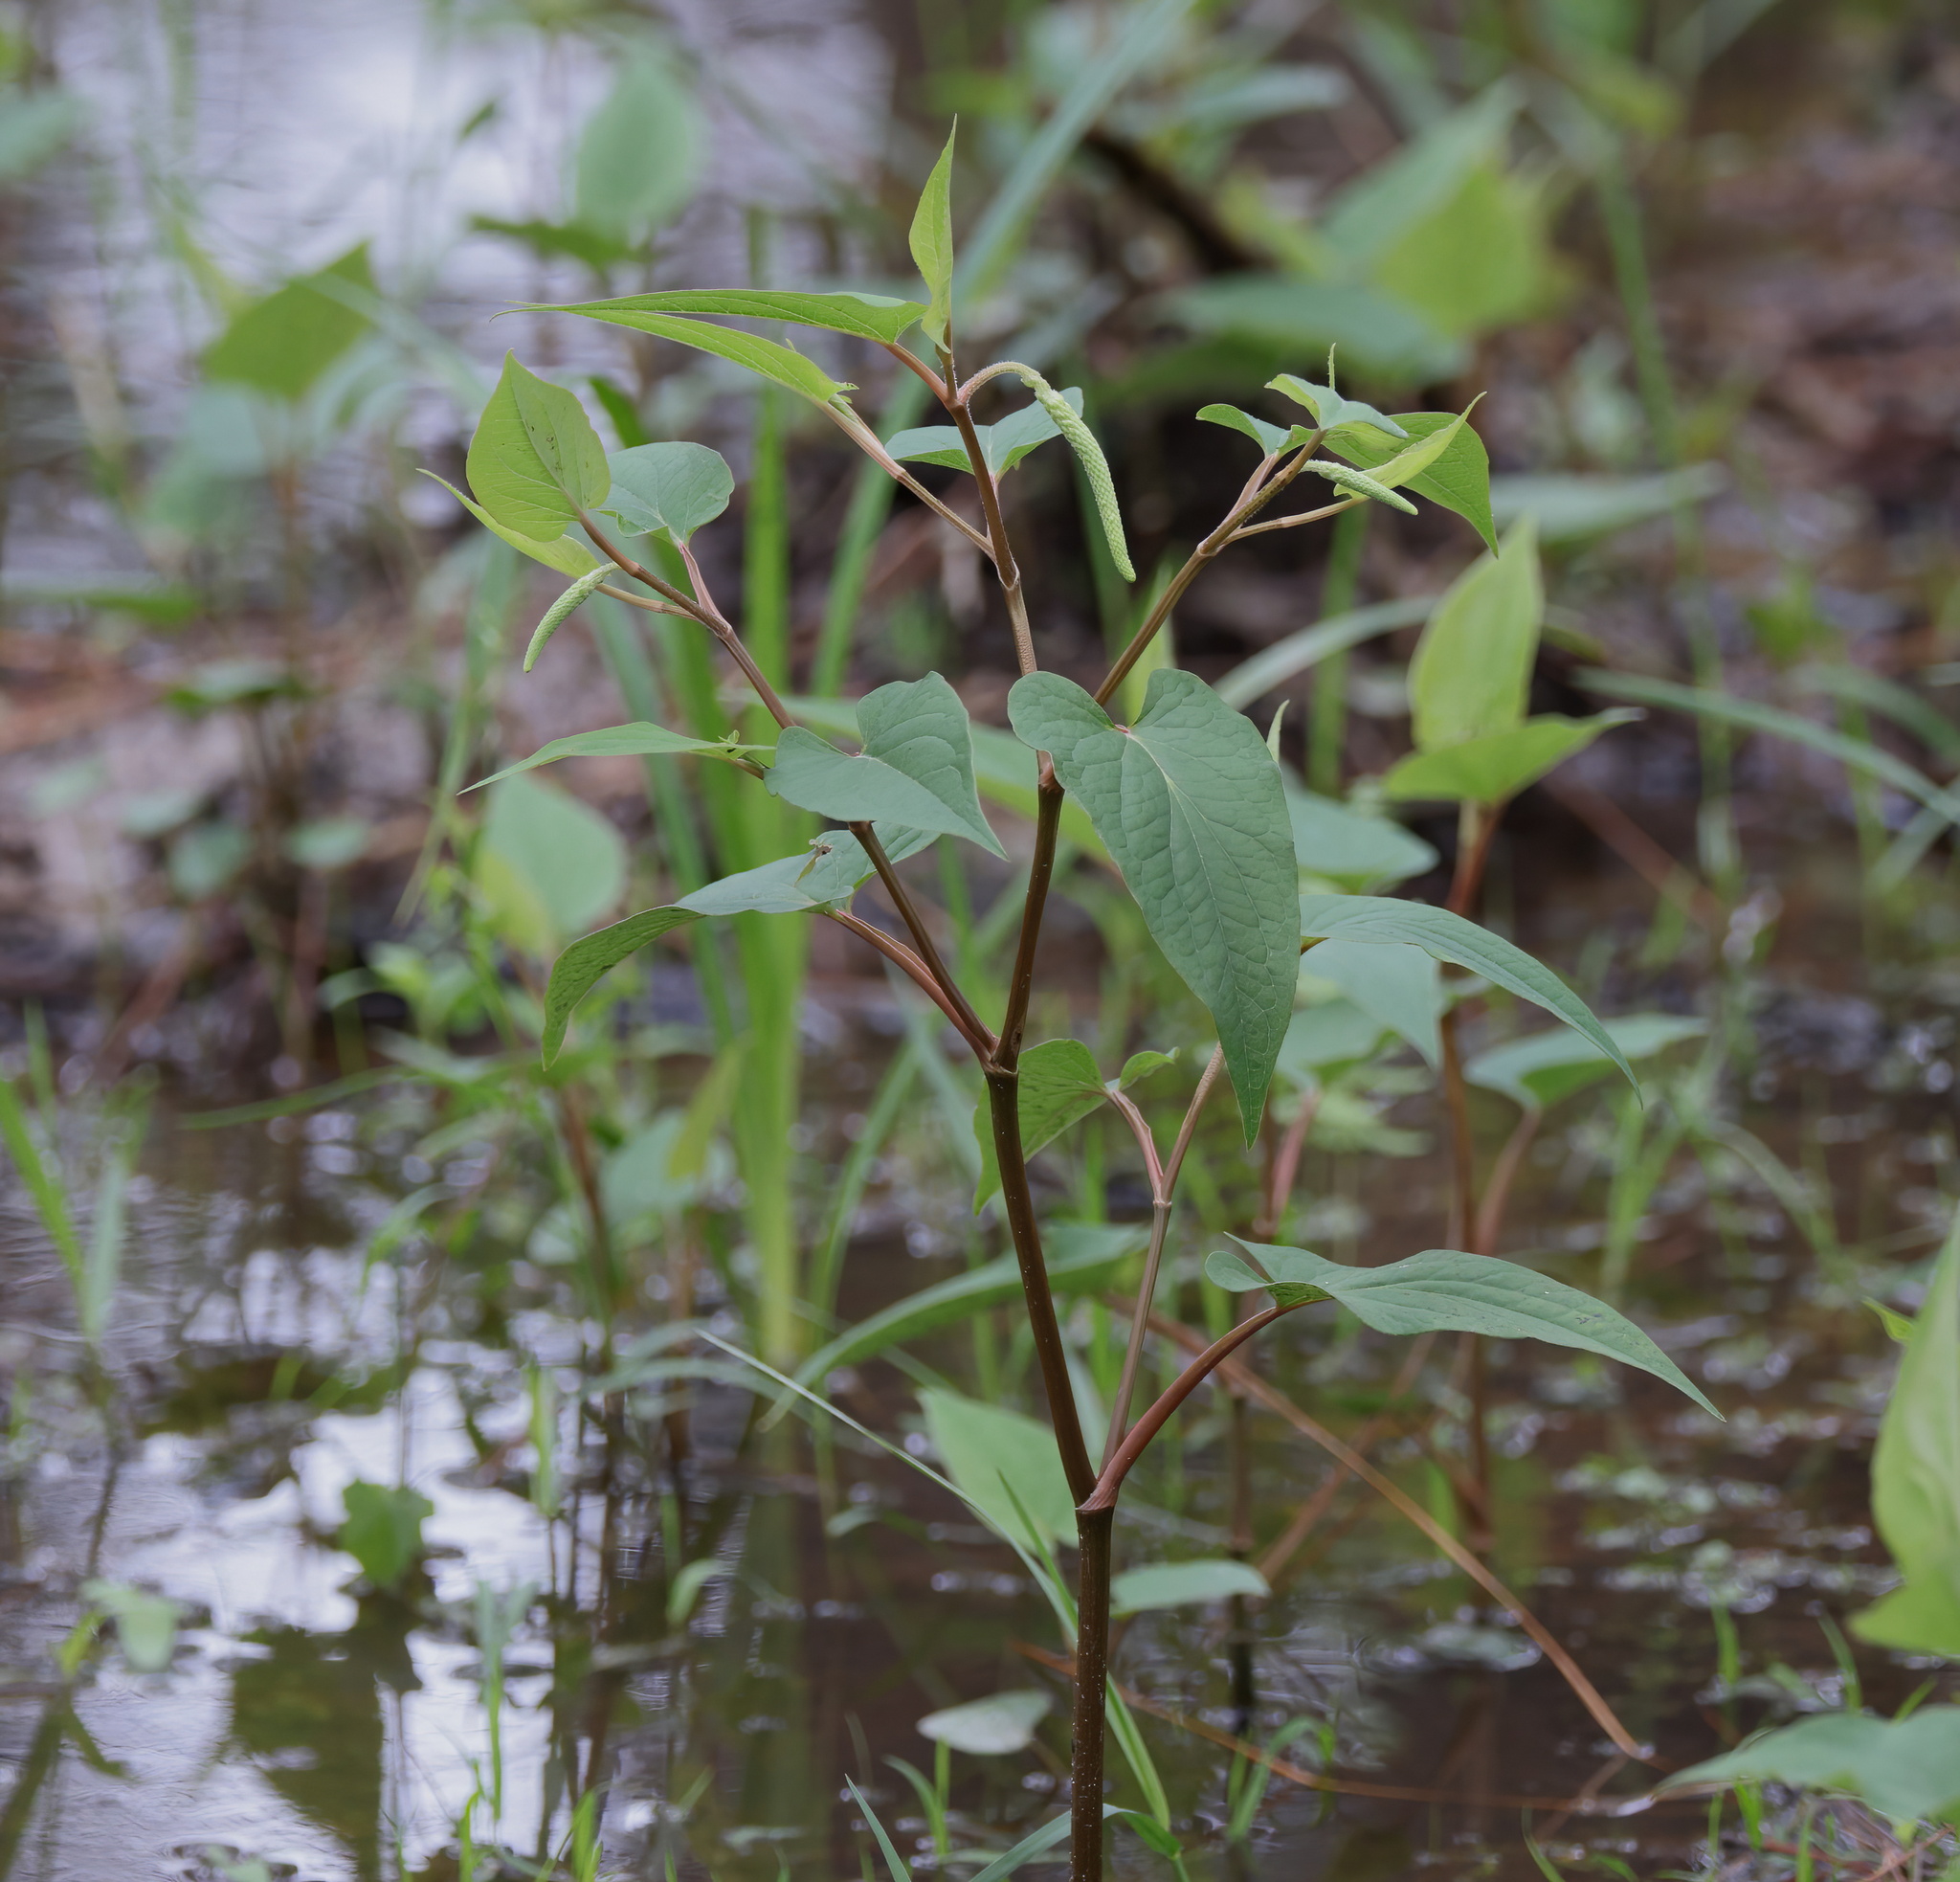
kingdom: Plantae
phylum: Tracheophyta
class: Magnoliopsida
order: Piperales
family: Saururaceae
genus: Saururus
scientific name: Saururus cernuus
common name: Lizard's-tail
